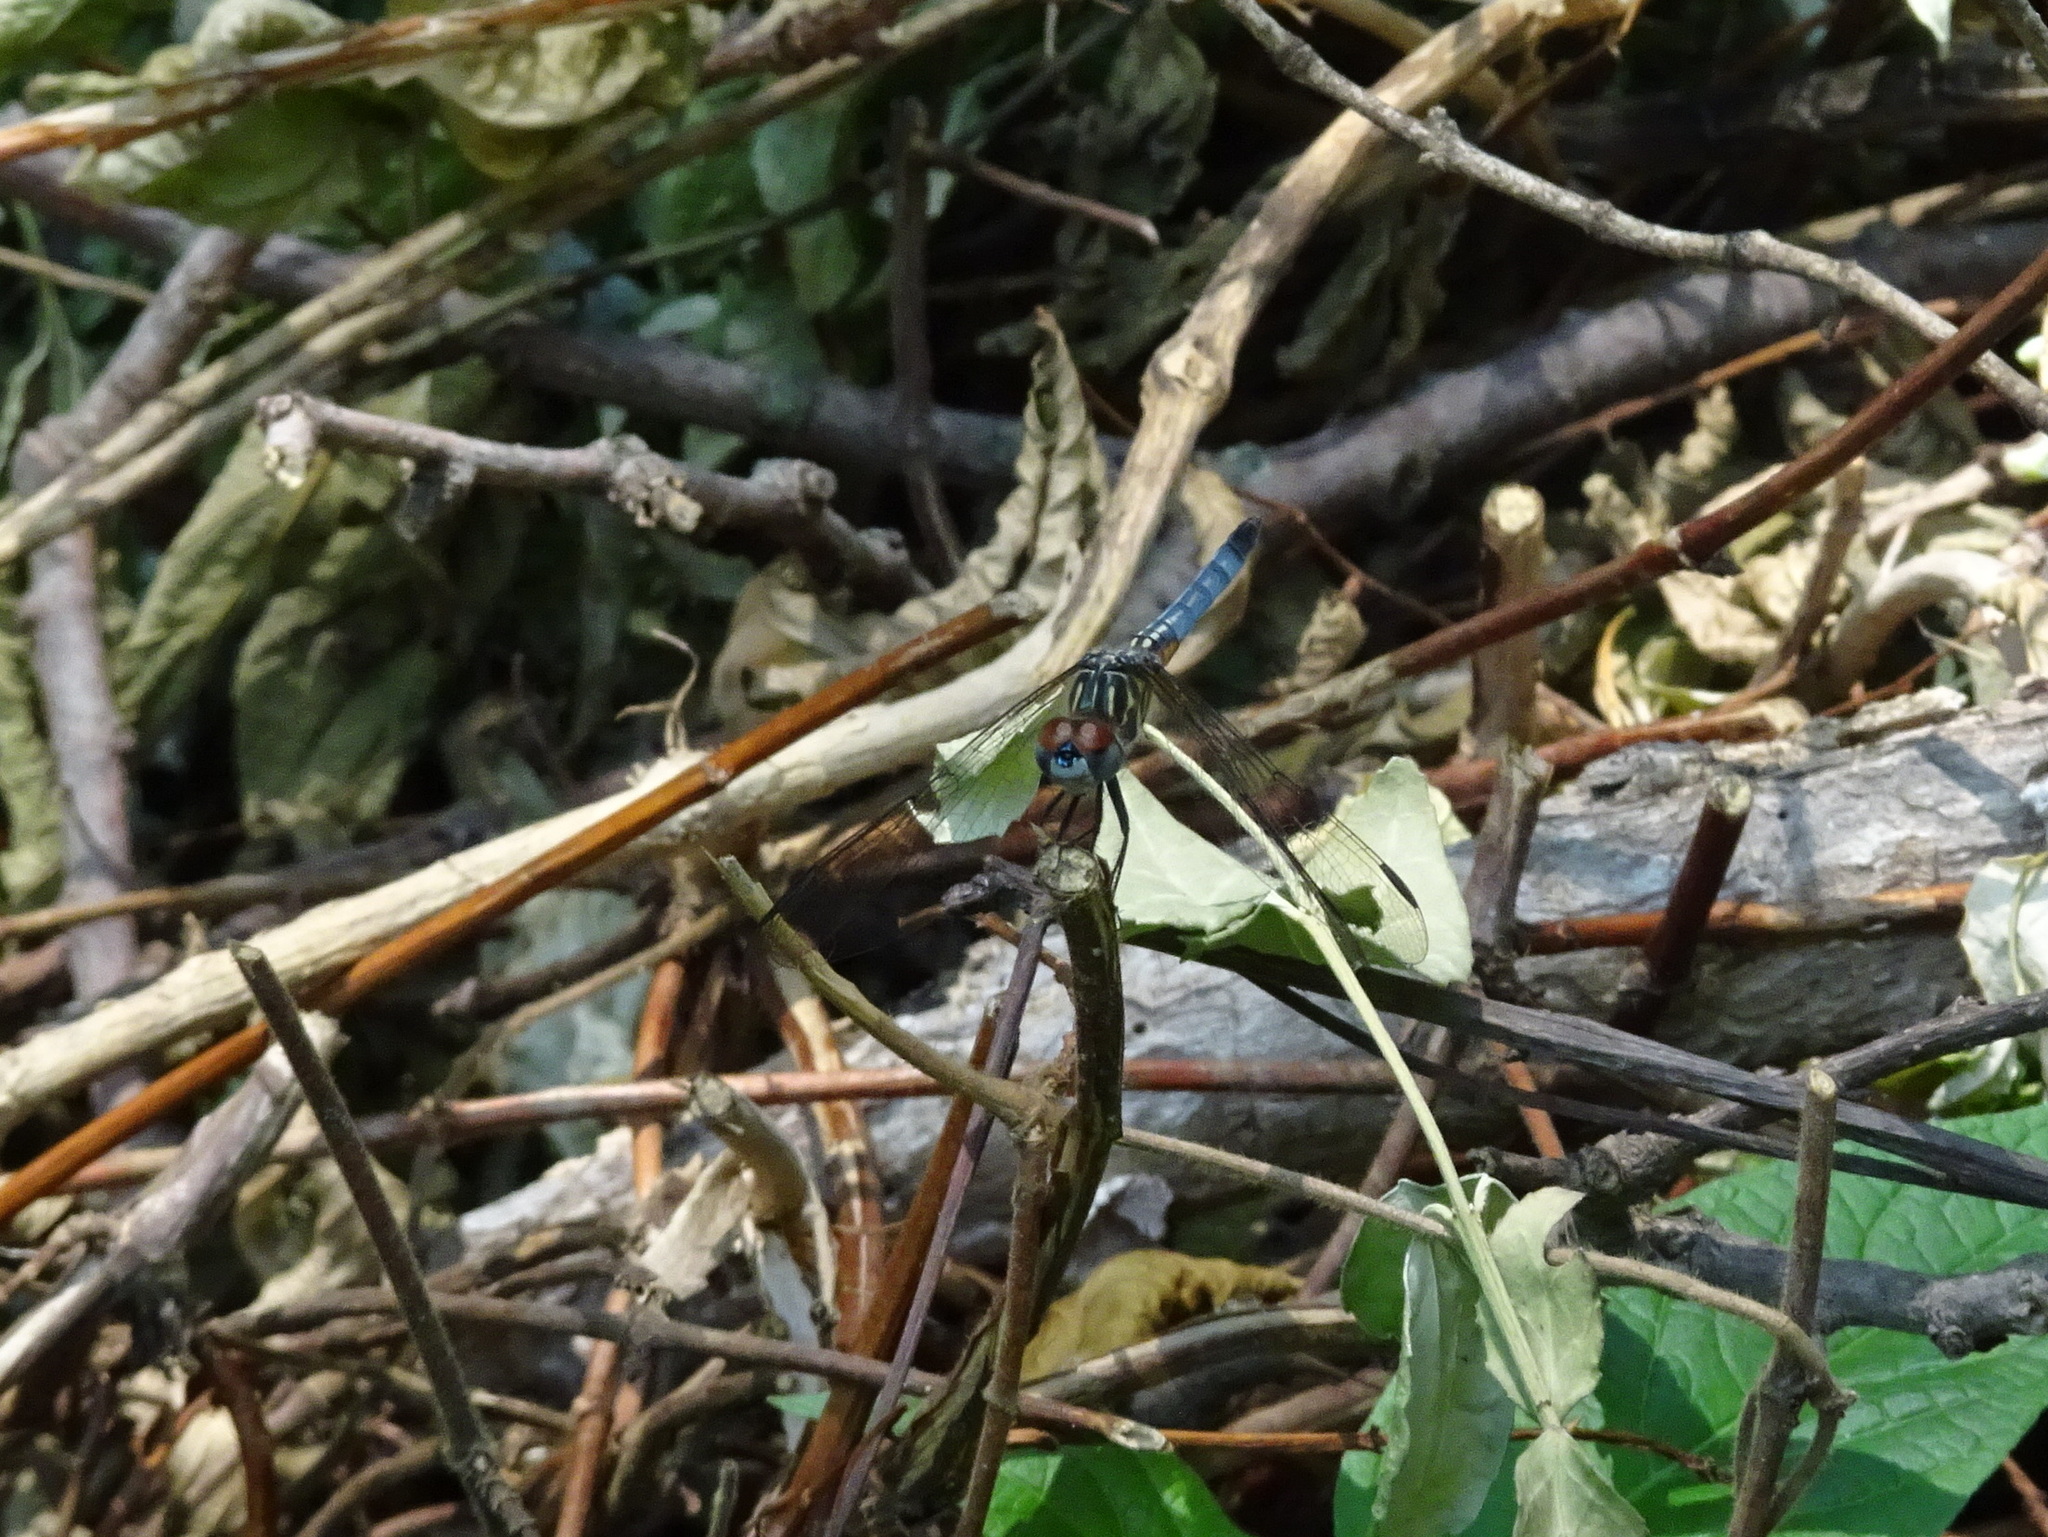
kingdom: Animalia
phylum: Arthropoda
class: Insecta
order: Odonata
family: Libellulidae
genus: Pachydiplax
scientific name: Pachydiplax longipennis
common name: Blue dasher
